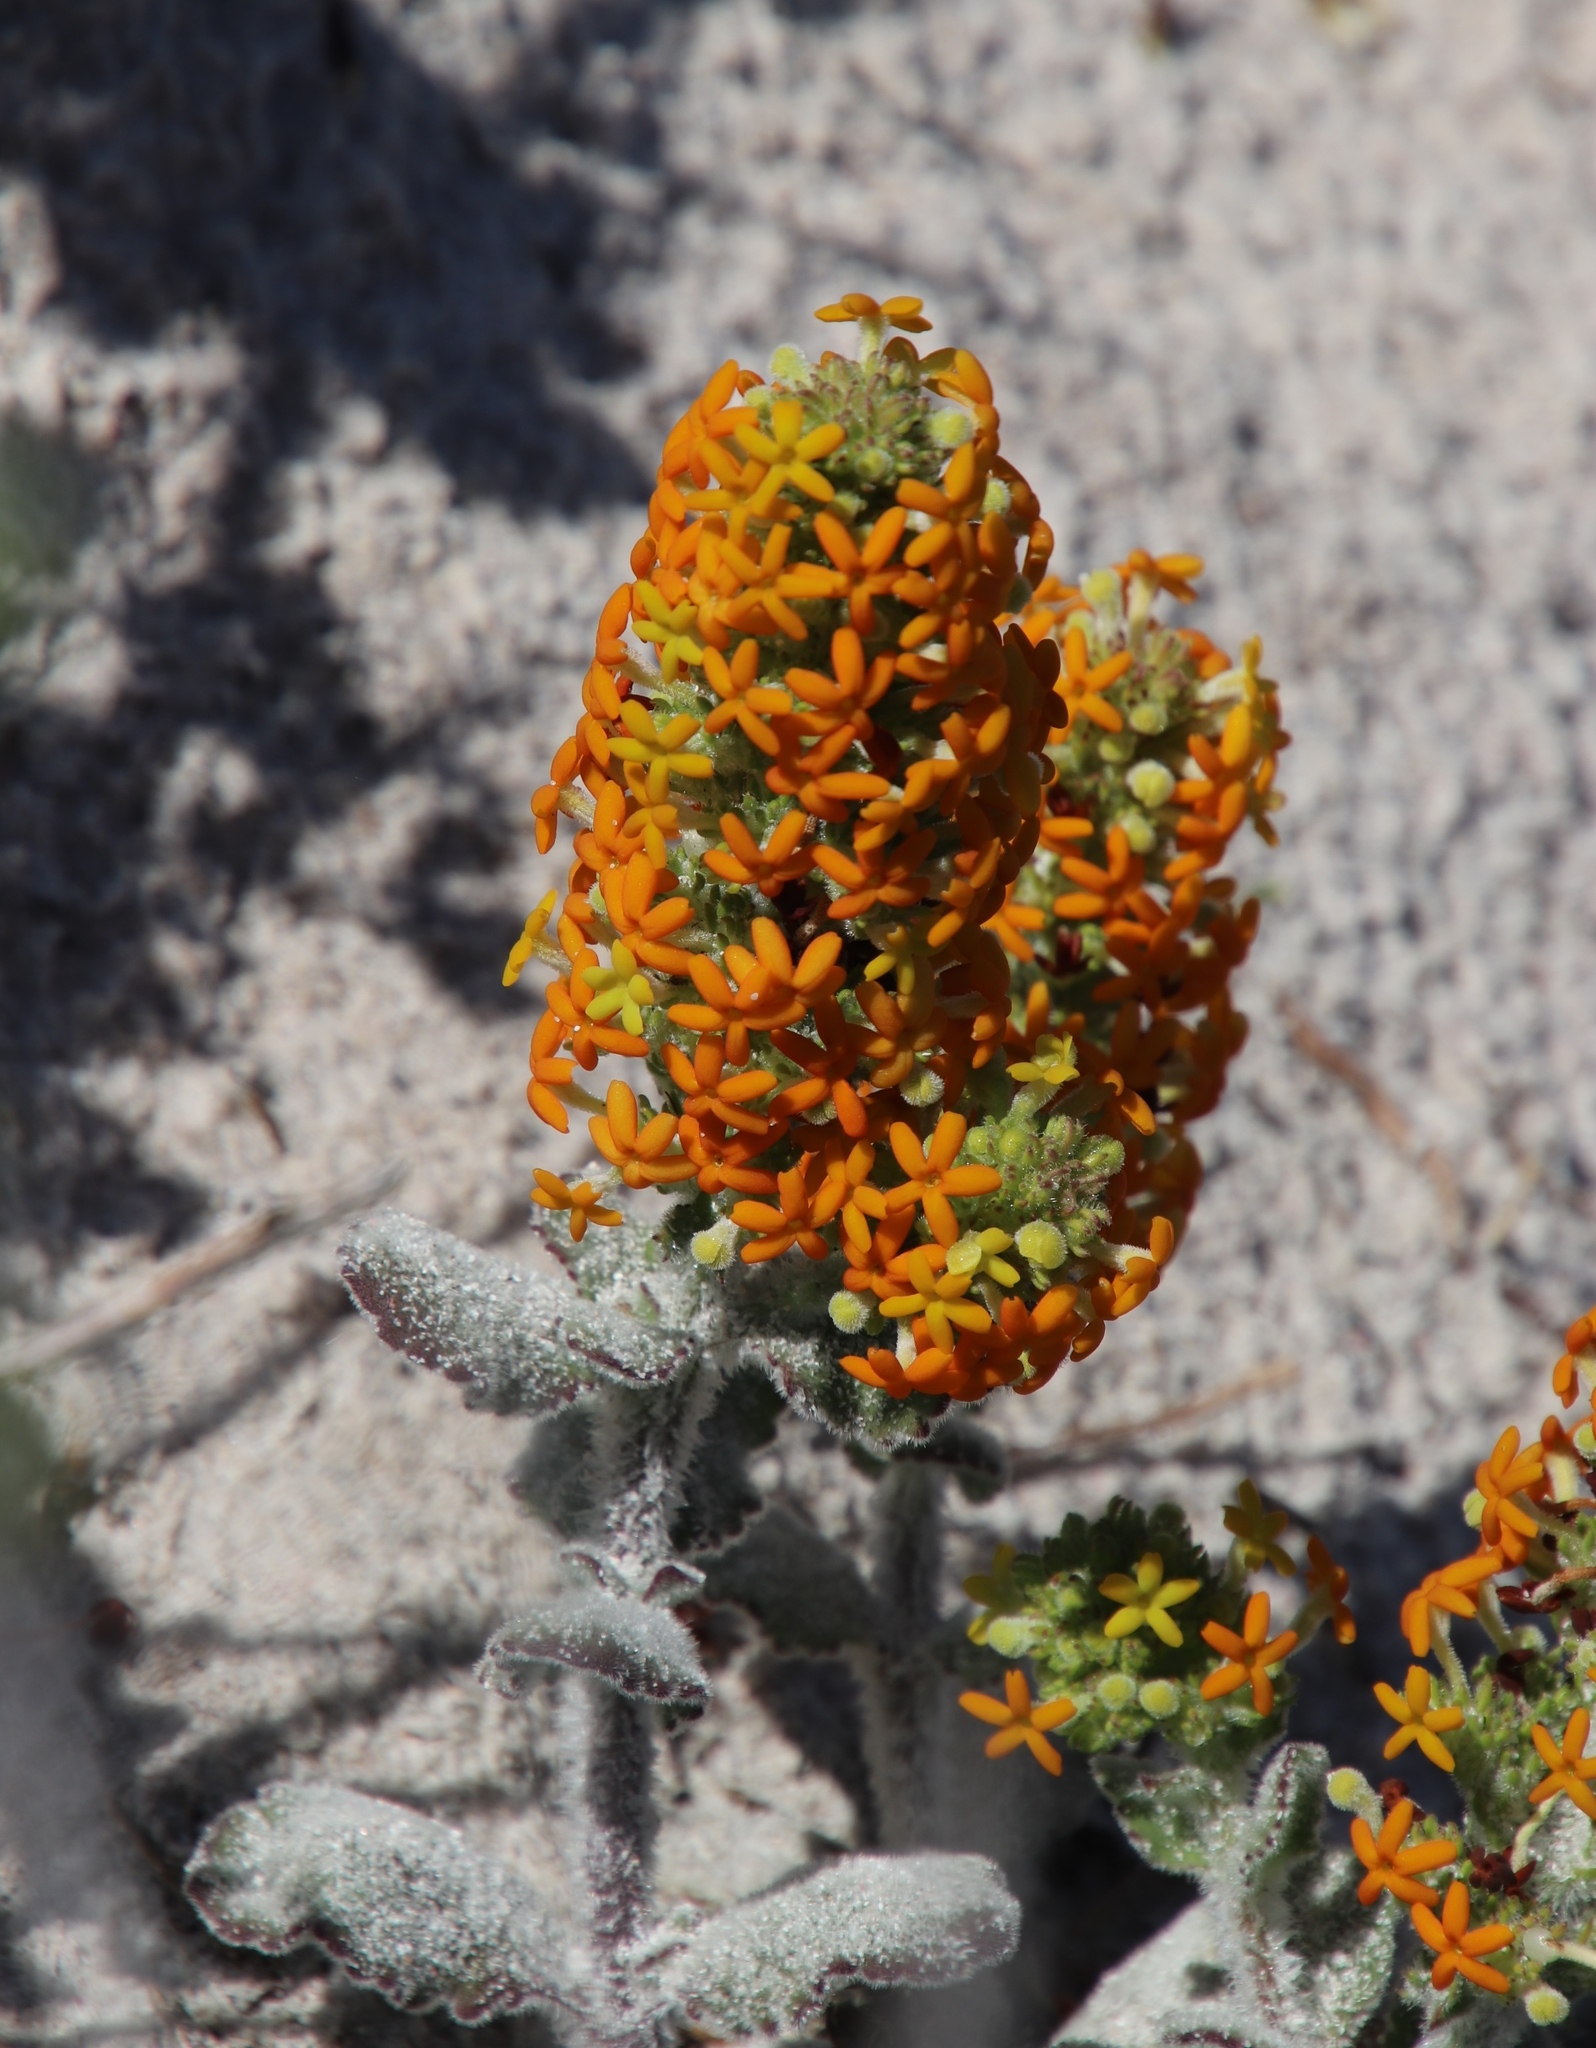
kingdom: Plantae
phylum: Tracheophyta
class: Magnoliopsida
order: Lamiales
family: Scrophulariaceae
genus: Manulea
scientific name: Manulea tomentosa
